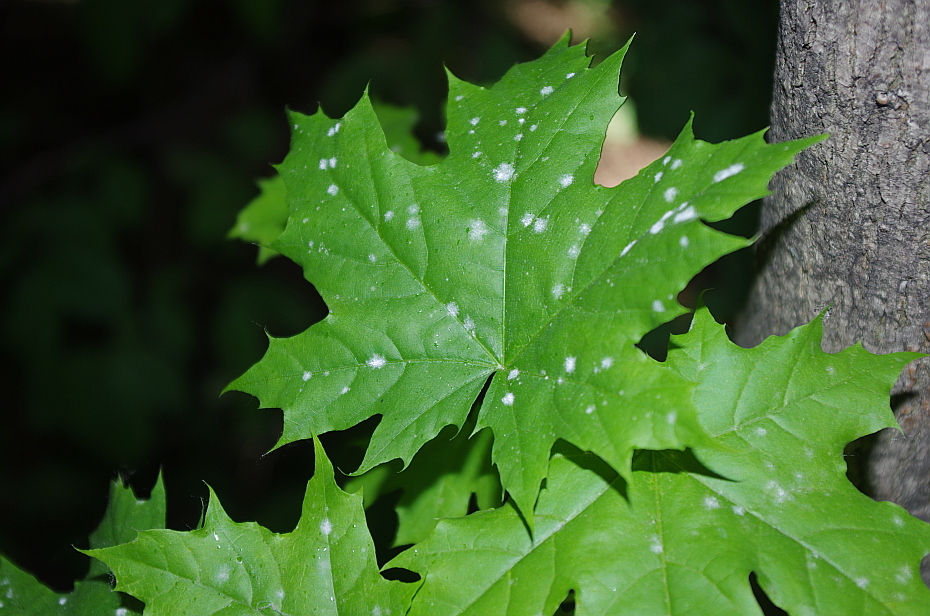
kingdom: Fungi
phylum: Ascomycota
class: Leotiomycetes
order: Helotiales
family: Erysiphaceae
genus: Sawadaea
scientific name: Sawadaea tulasnei
